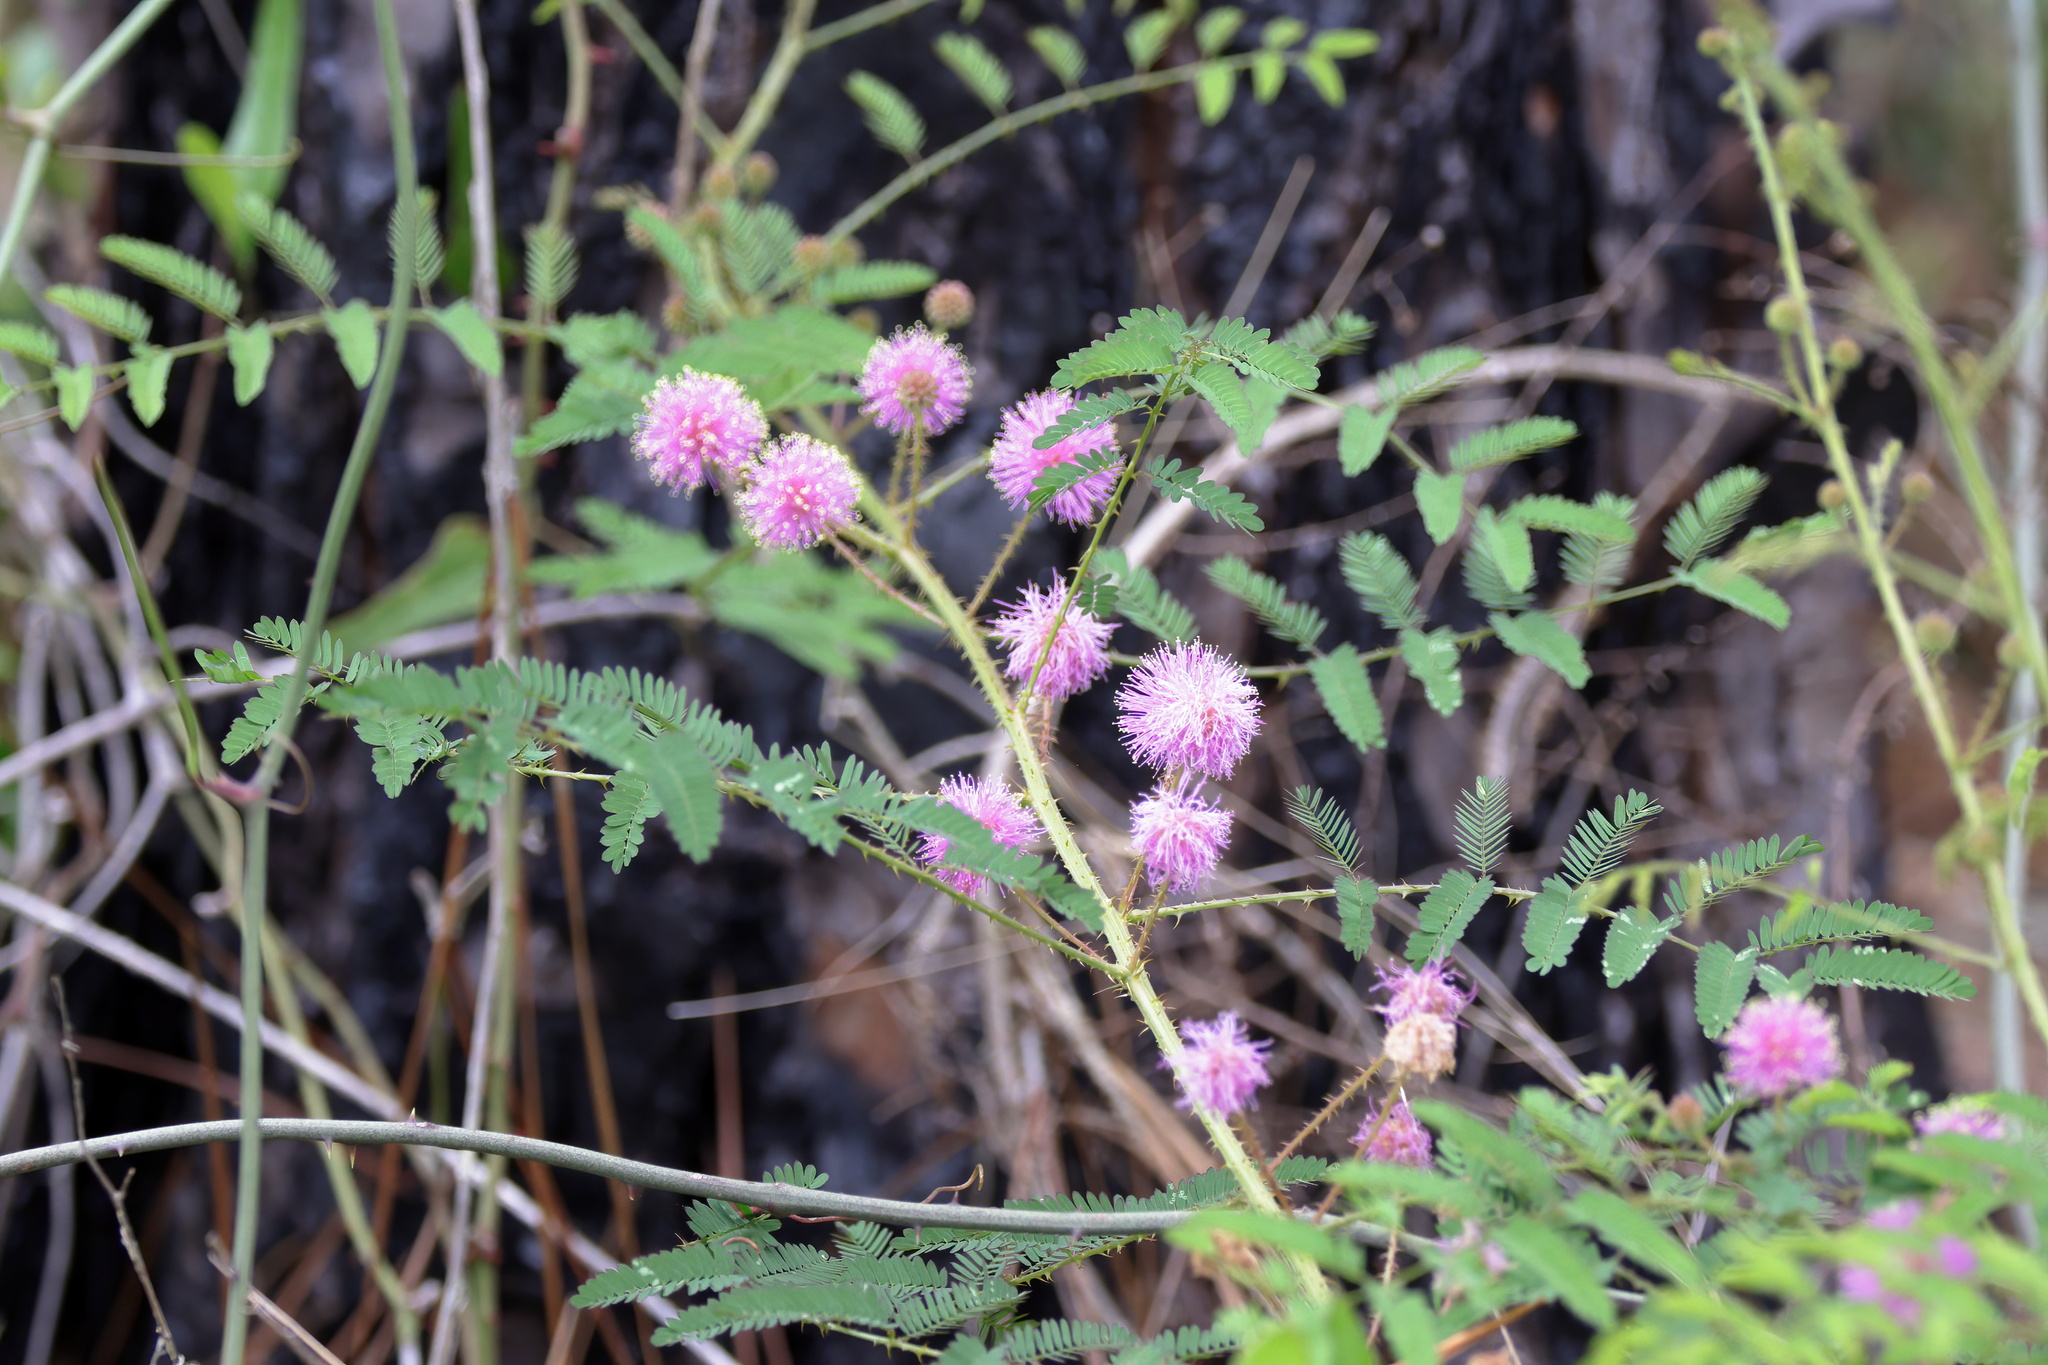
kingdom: Plantae
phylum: Tracheophyta
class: Magnoliopsida
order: Fabales
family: Fabaceae
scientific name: Fabaceae
